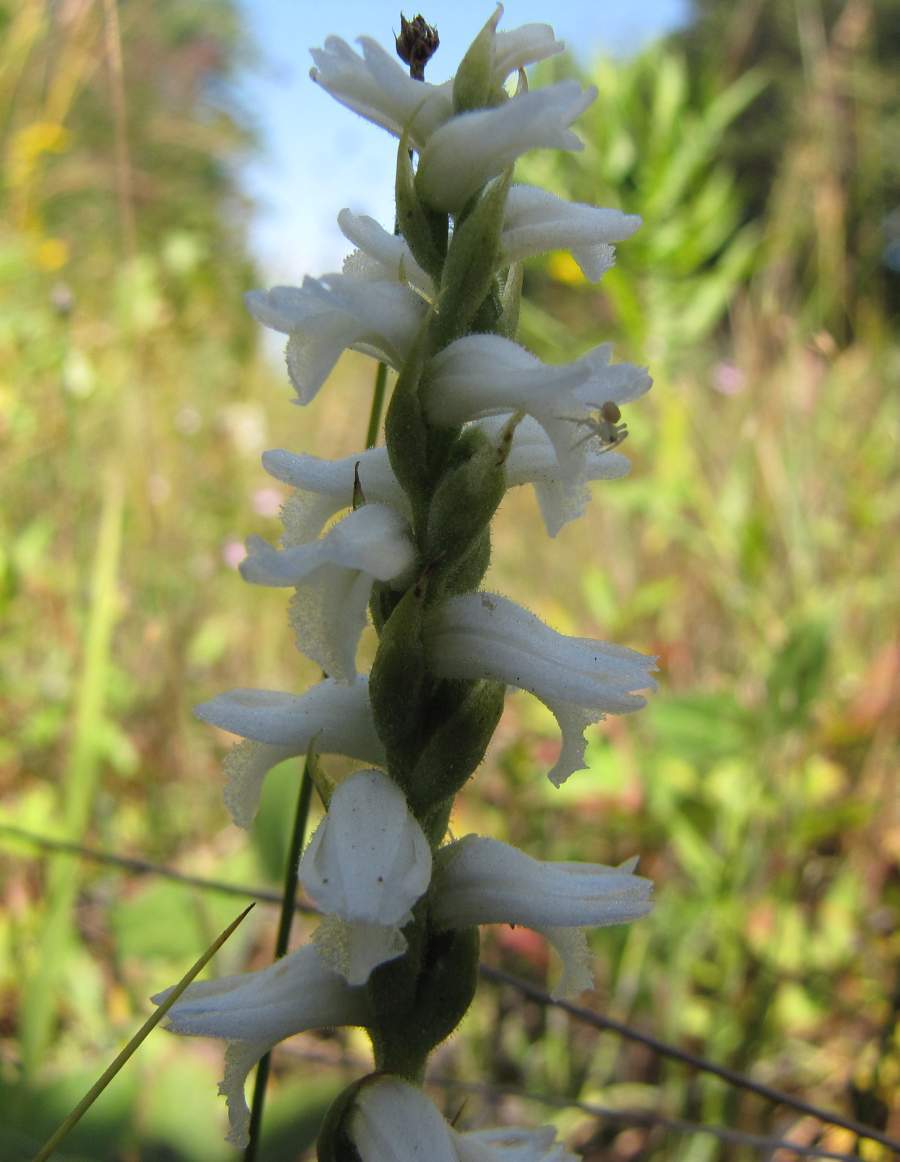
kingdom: Plantae
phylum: Tracheophyta
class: Liliopsida
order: Asparagales
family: Orchidaceae
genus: Spiranthes
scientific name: Spiranthes incurva
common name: Sphinx ladies'-tresses
